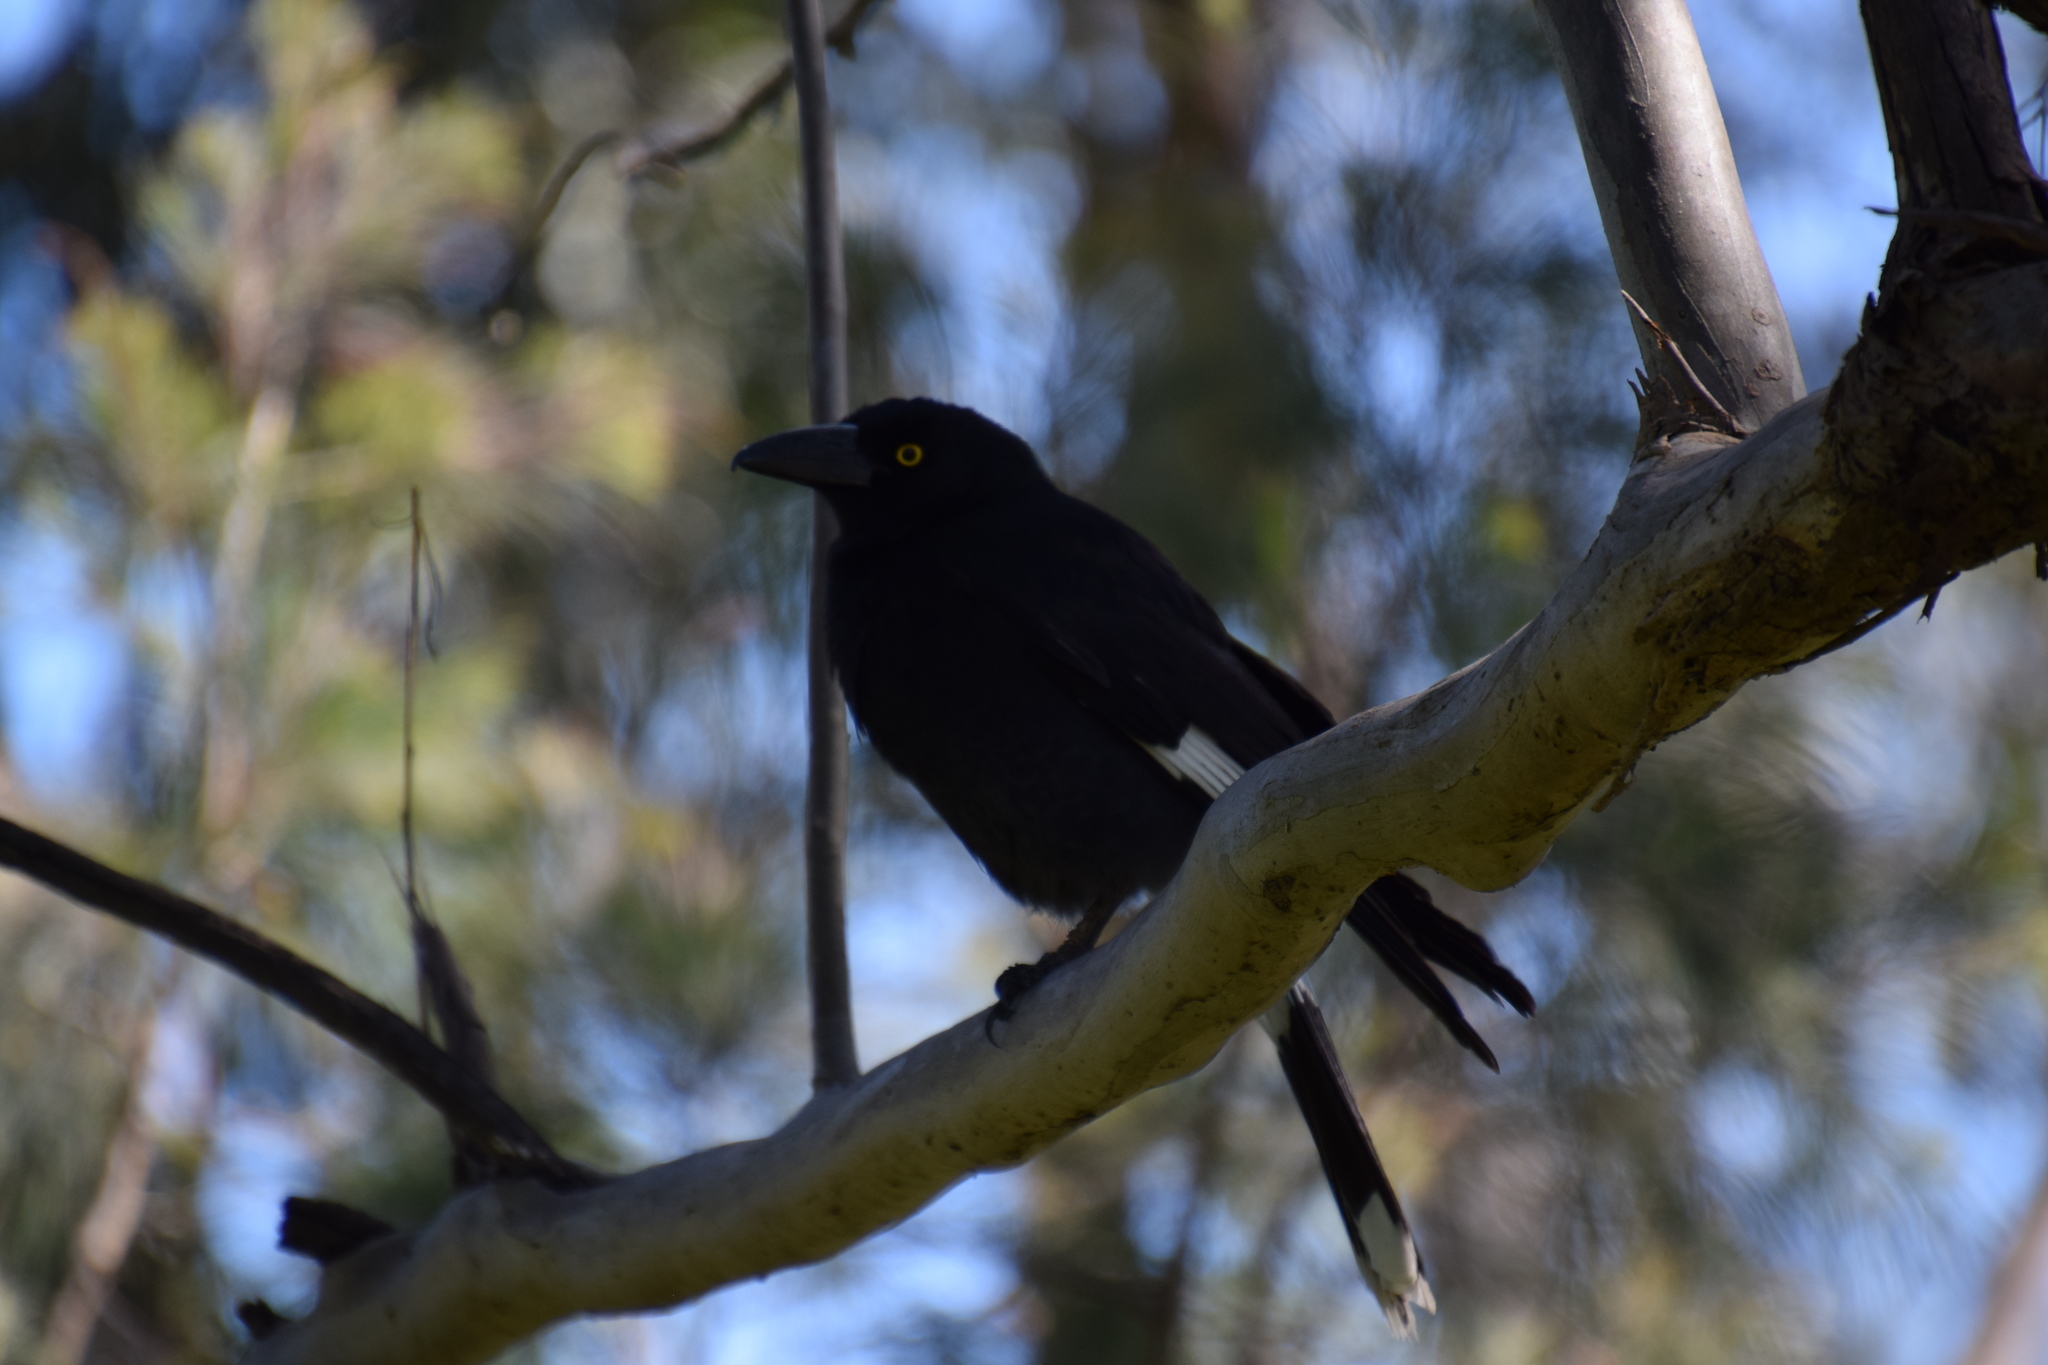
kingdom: Animalia
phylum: Chordata
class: Aves
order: Passeriformes
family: Cracticidae
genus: Strepera
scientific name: Strepera graculina
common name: Pied currawong
